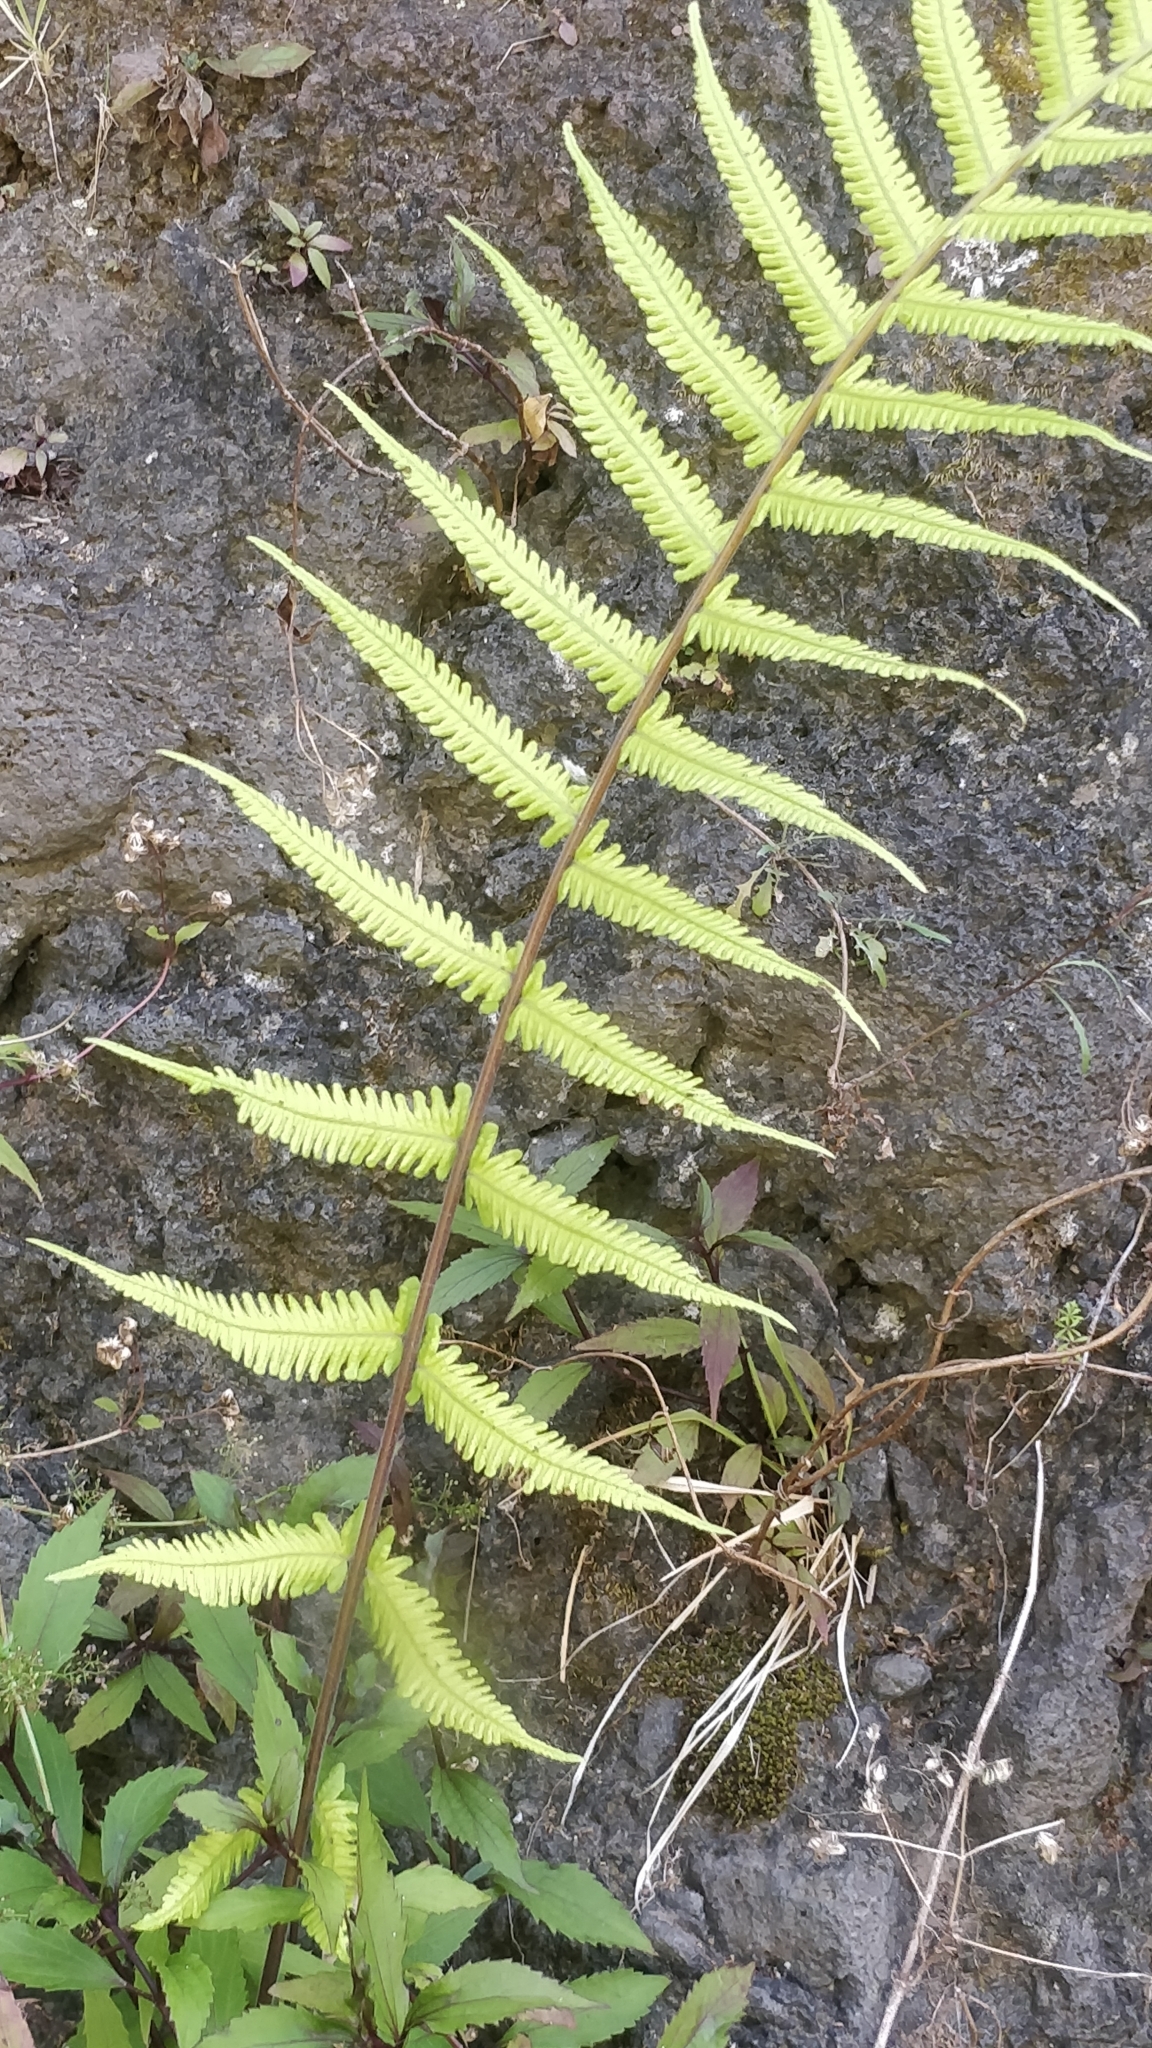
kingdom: Plantae
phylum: Tracheophyta
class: Polypodiopsida
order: Polypodiales
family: Thelypteridaceae
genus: Christella
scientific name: Christella dentata
